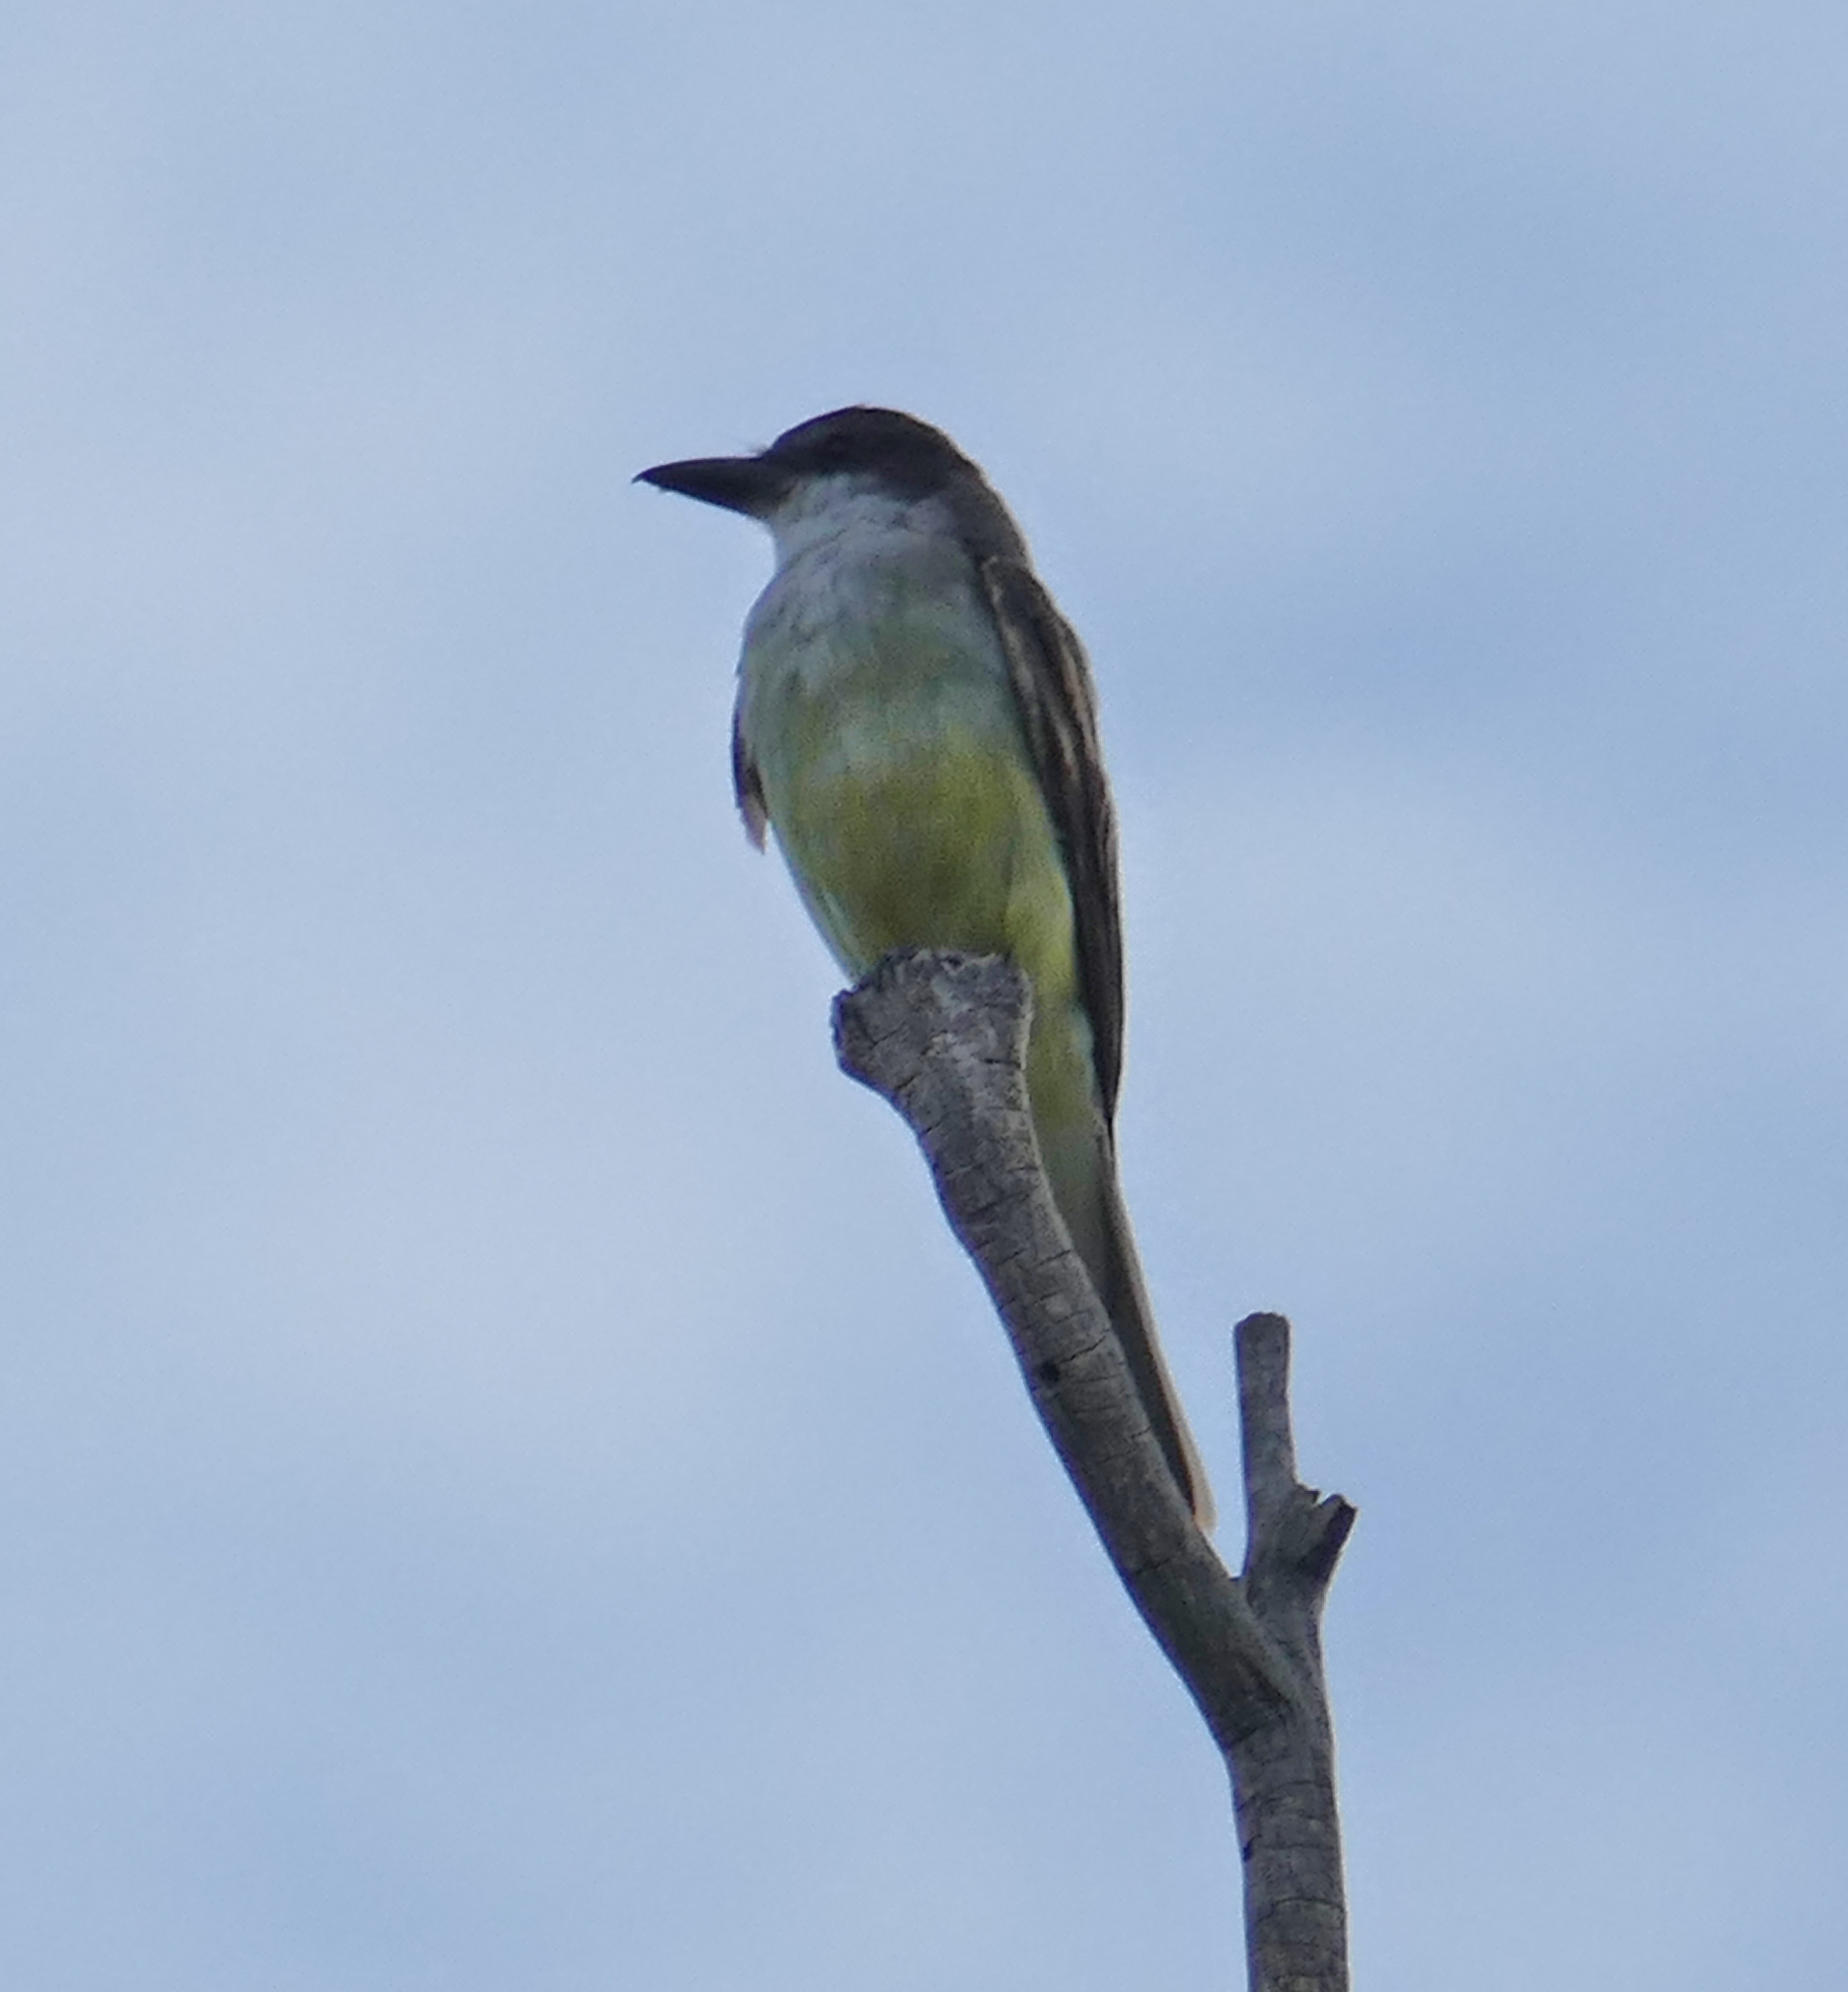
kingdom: Animalia
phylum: Chordata
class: Aves
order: Passeriformes
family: Tyrannidae
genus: Tyrannus
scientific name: Tyrannus crassirostris
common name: Thick-billed kingbird
